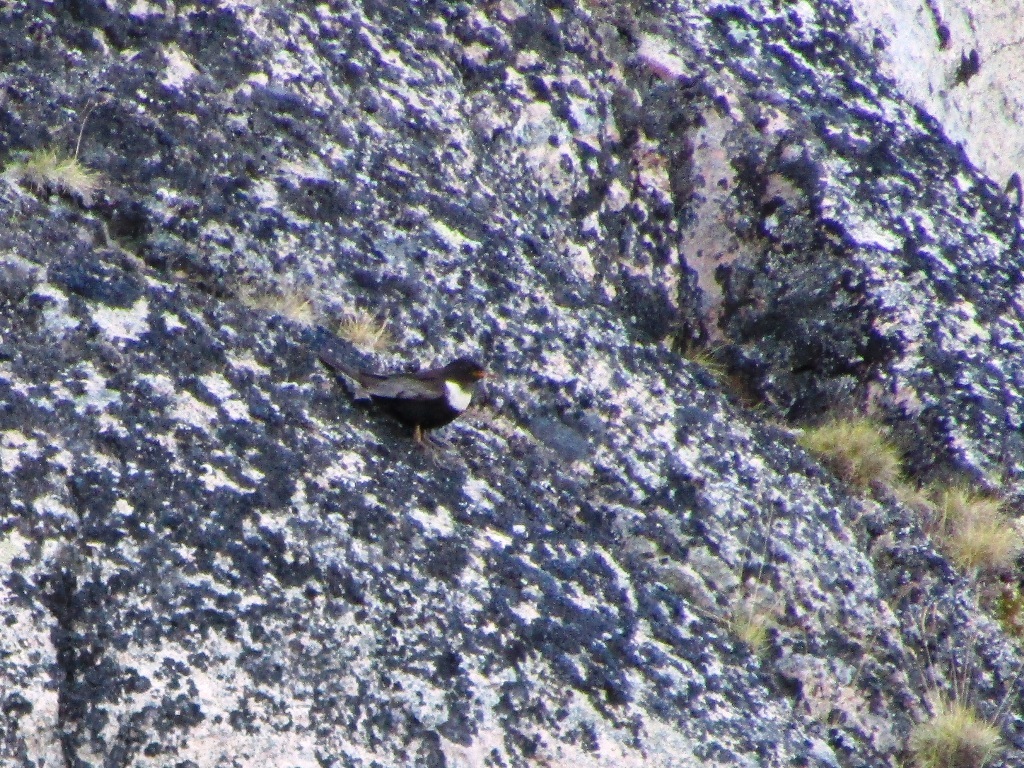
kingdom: Animalia
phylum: Chordata
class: Aves
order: Passeriformes
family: Turdidae
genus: Turdus
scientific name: Turdus torquatus
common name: Ring ouzel
